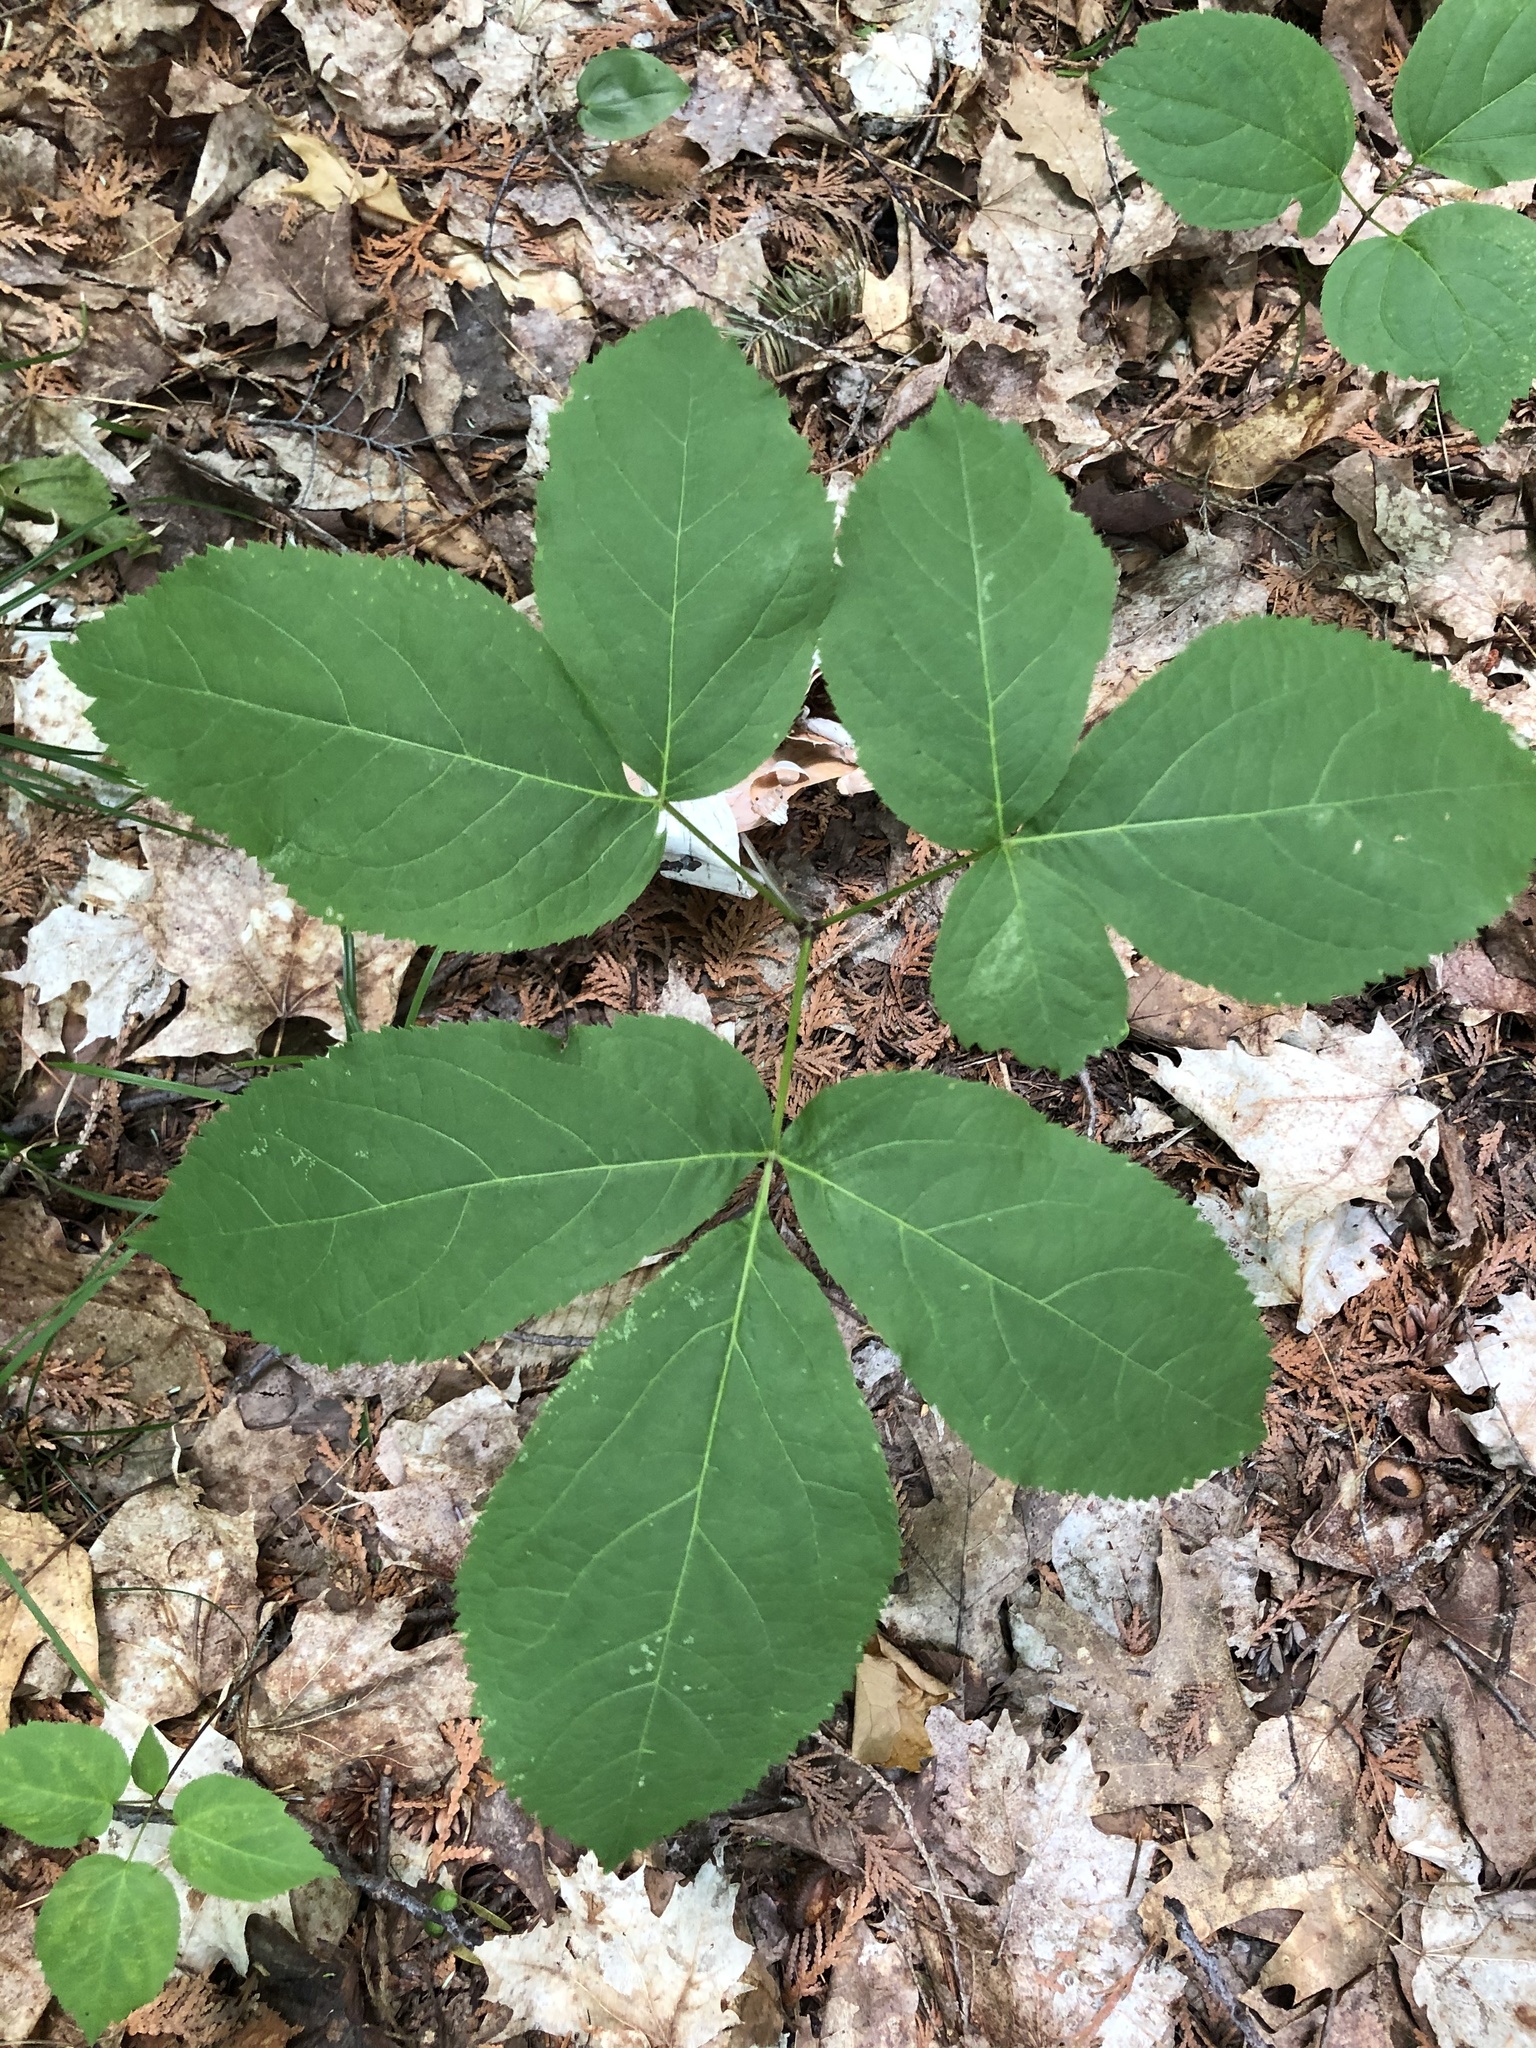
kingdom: Plantae
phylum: Tracheophyta
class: Magnoliopsida
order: Apiales
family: Araliaceae
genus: Aralia
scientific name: Aralia nudicaulis
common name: Wild sarsaparilla
